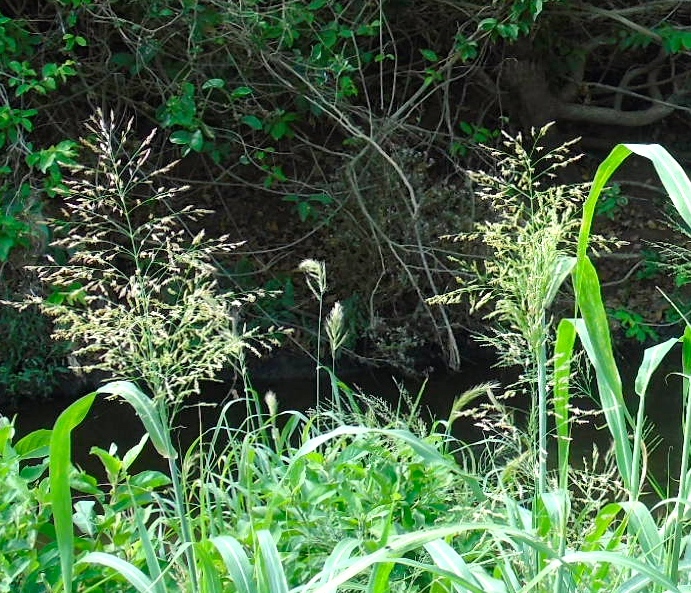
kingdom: Plantae
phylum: Tracheophyta
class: Liliopsida
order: Poales
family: Poaceae
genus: Sorghum
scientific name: Sorghum halepense
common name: Johnson-grass
